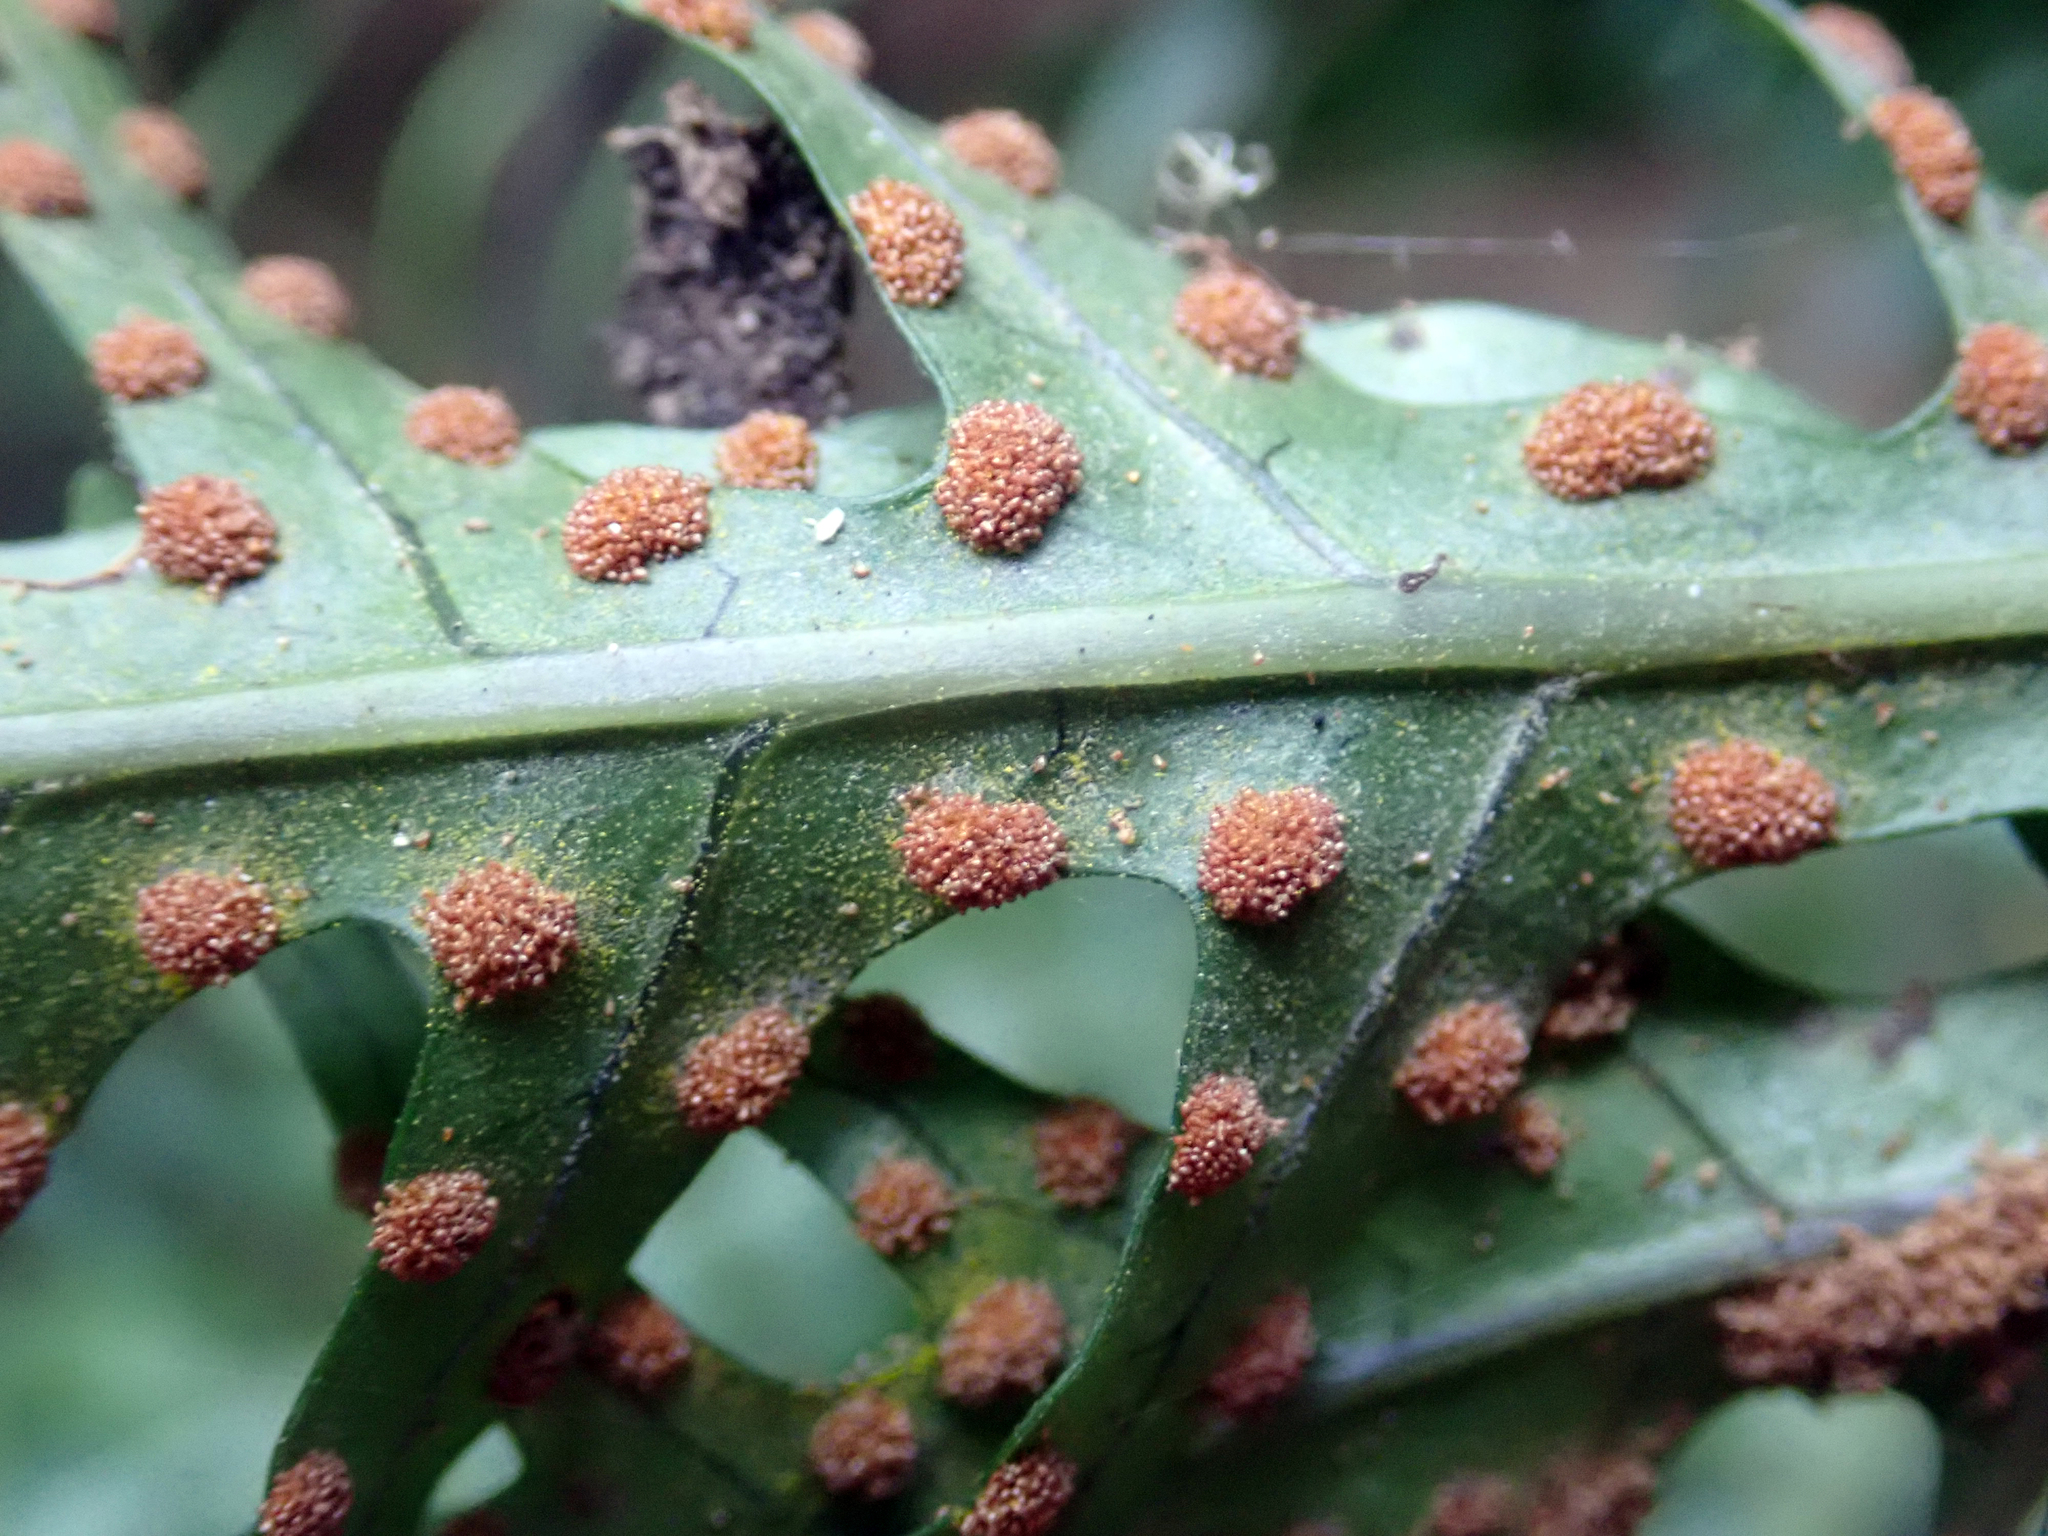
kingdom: Plantae
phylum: Tracheophyta
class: Polypodiopsida
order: Polypodiales
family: Polypodiaceae
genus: Lecanopteris
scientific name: Lecanopteris scandens
